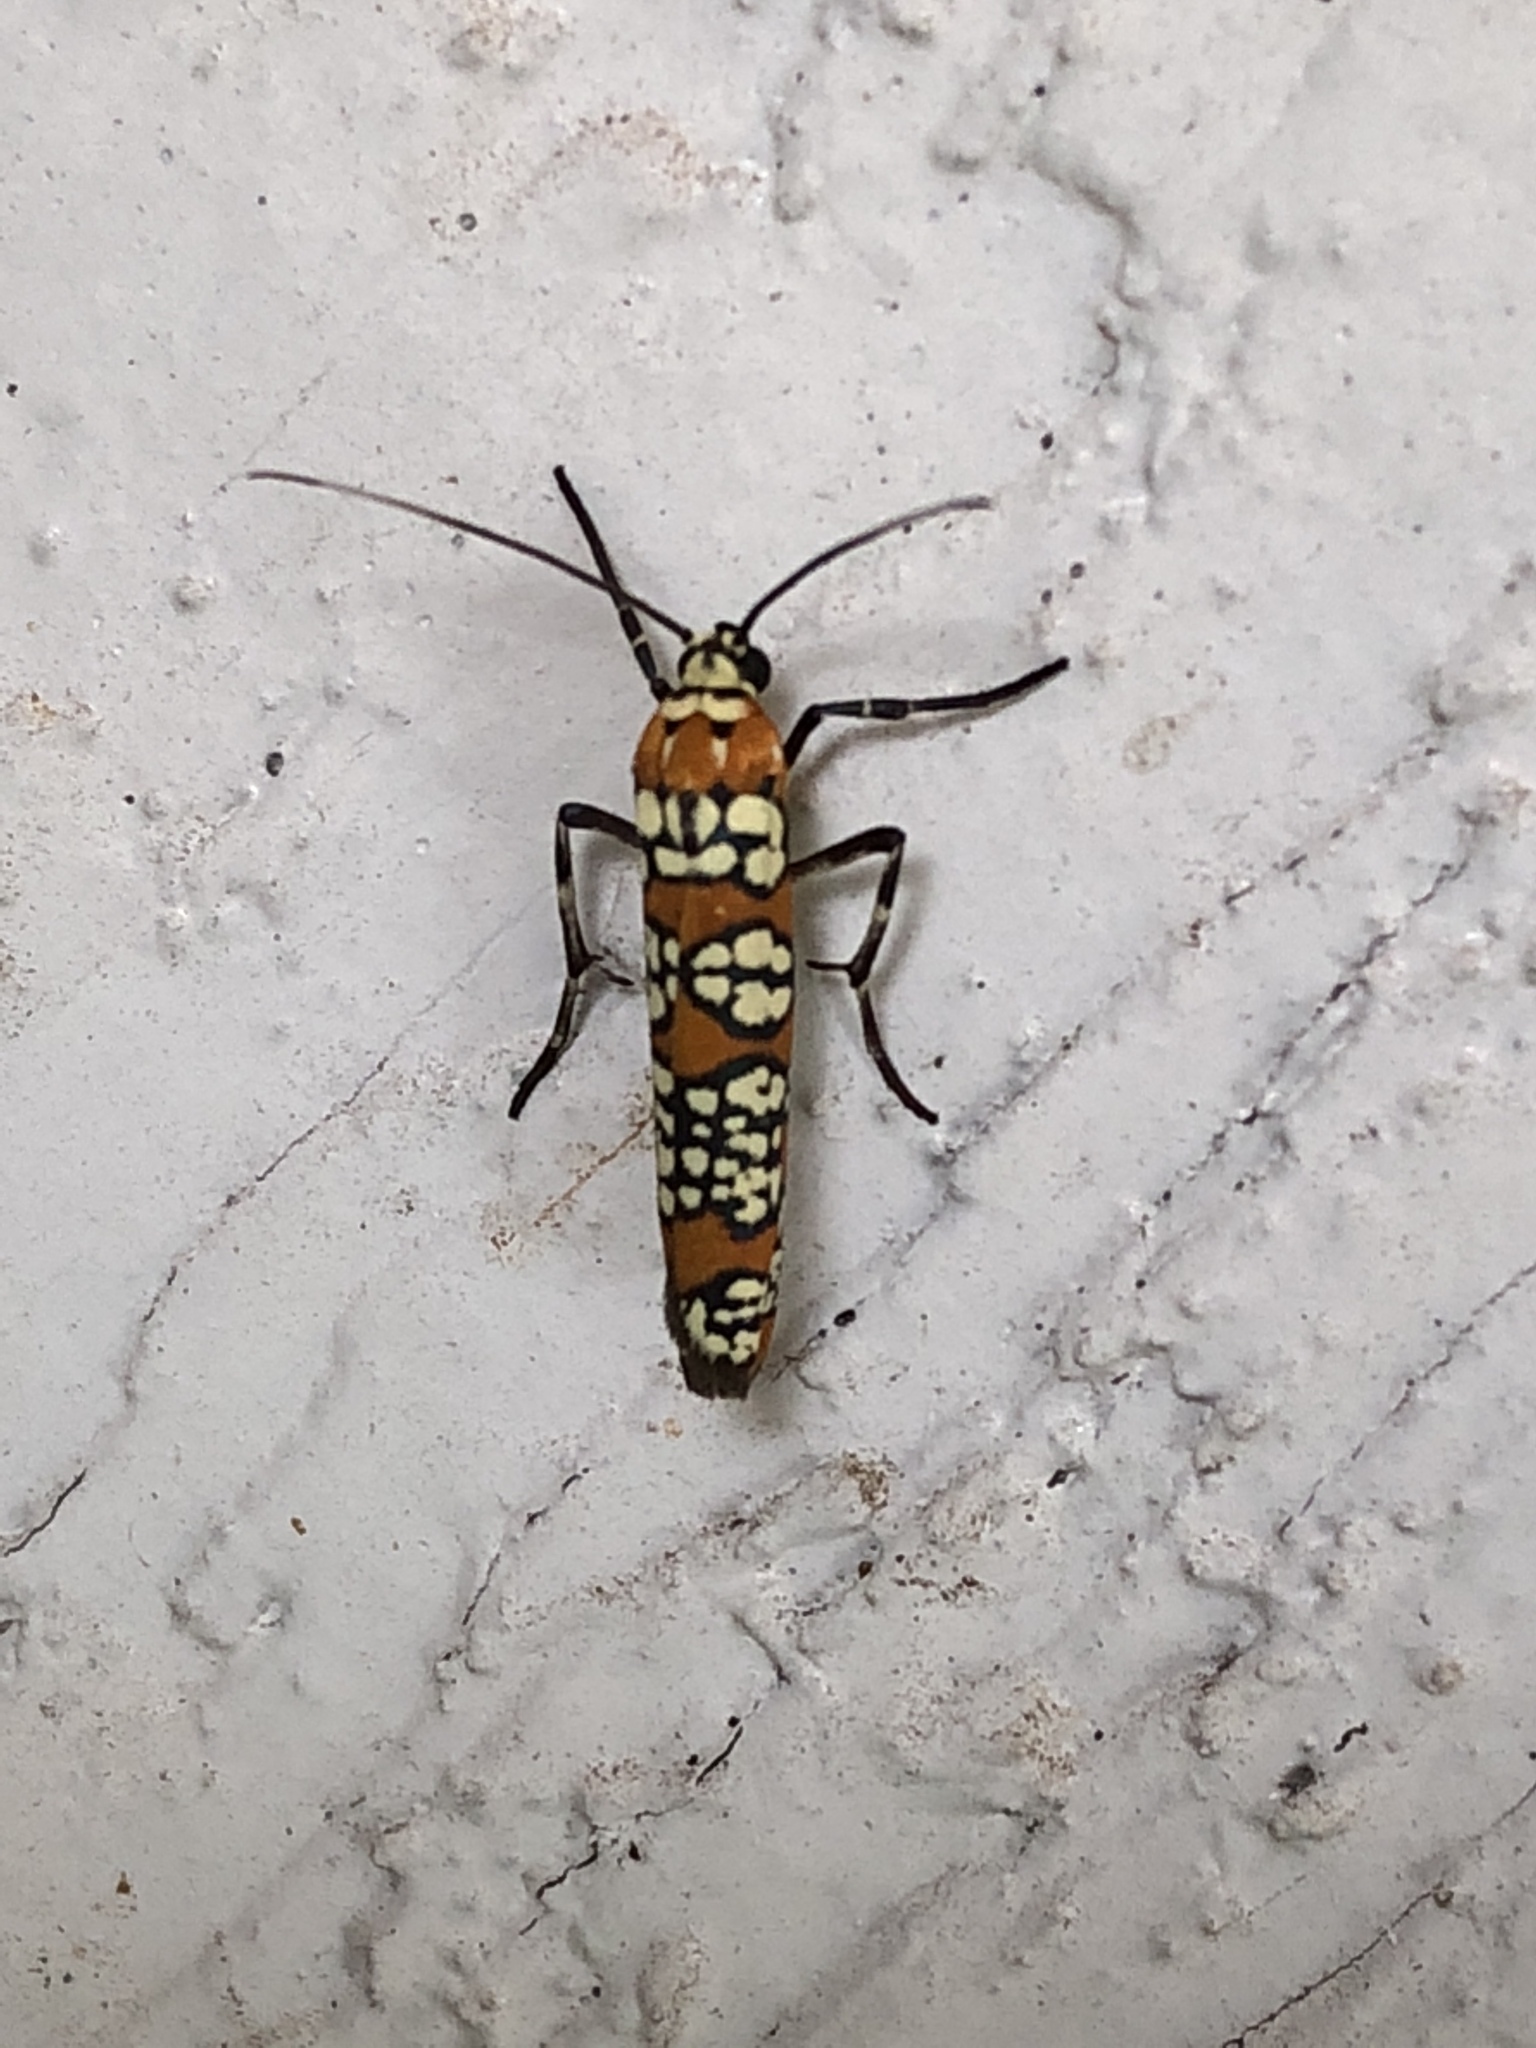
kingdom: Animalia
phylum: Arthropoda
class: Insecta
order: Lepidoptera
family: Attevidae
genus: Atteva
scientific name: Atteva punctella
